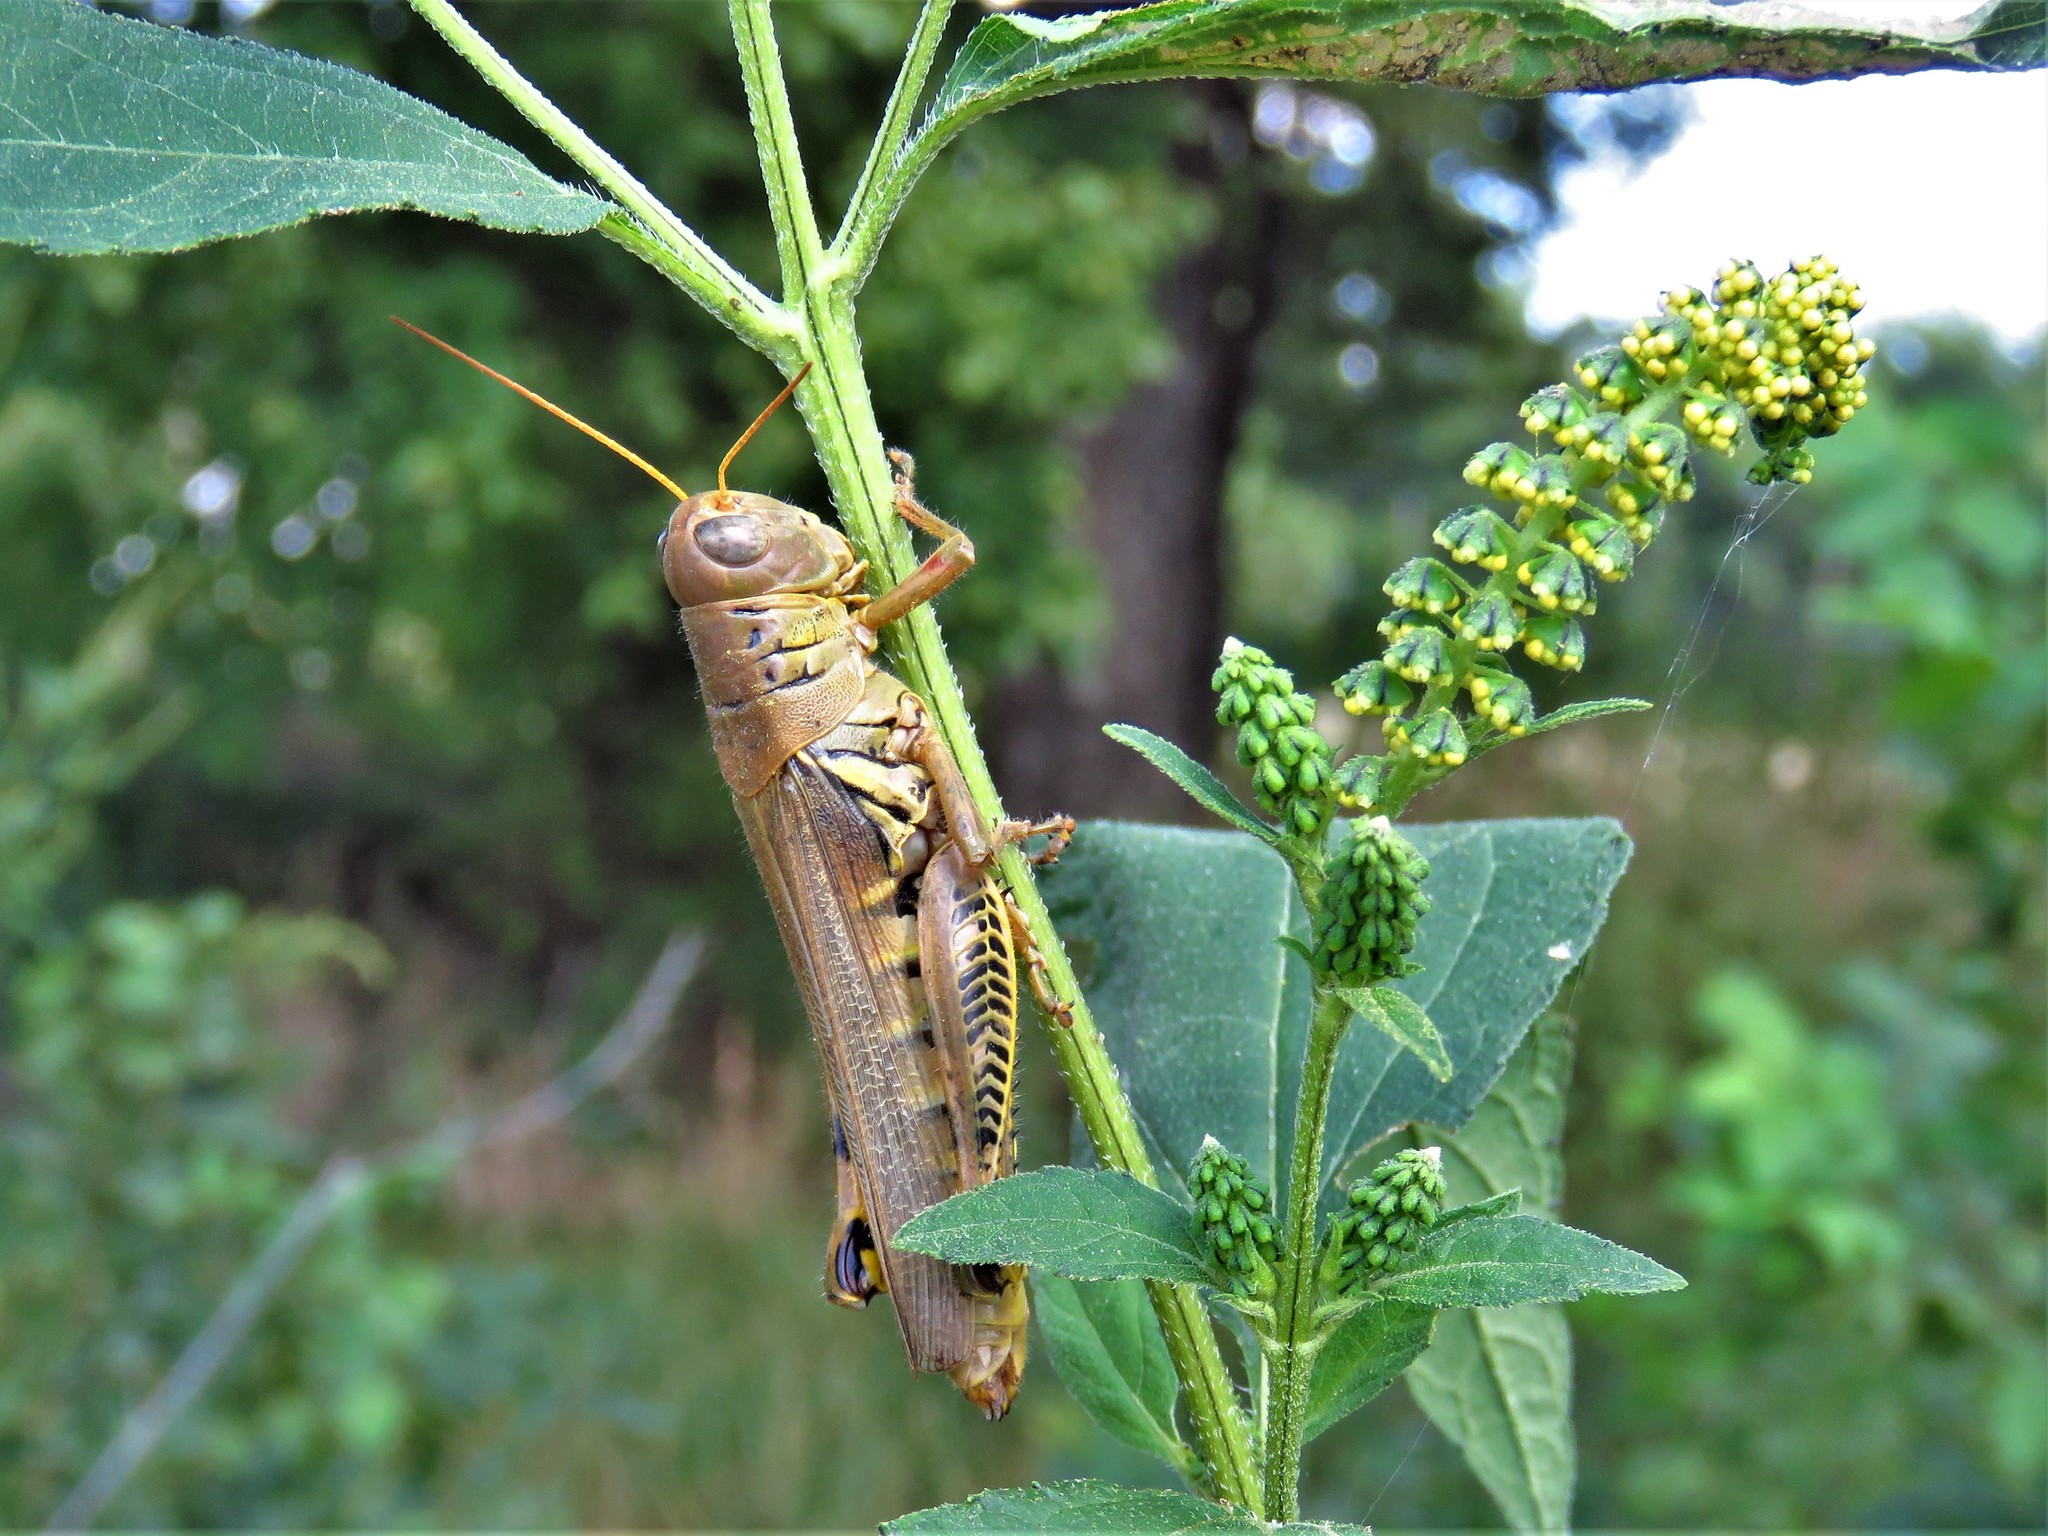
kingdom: Animalia
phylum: Arthropoda
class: Insecta
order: Orthoptera
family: Acrididae
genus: Melanoplus
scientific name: Melanoplus differentialis
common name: Differential grasshopper
